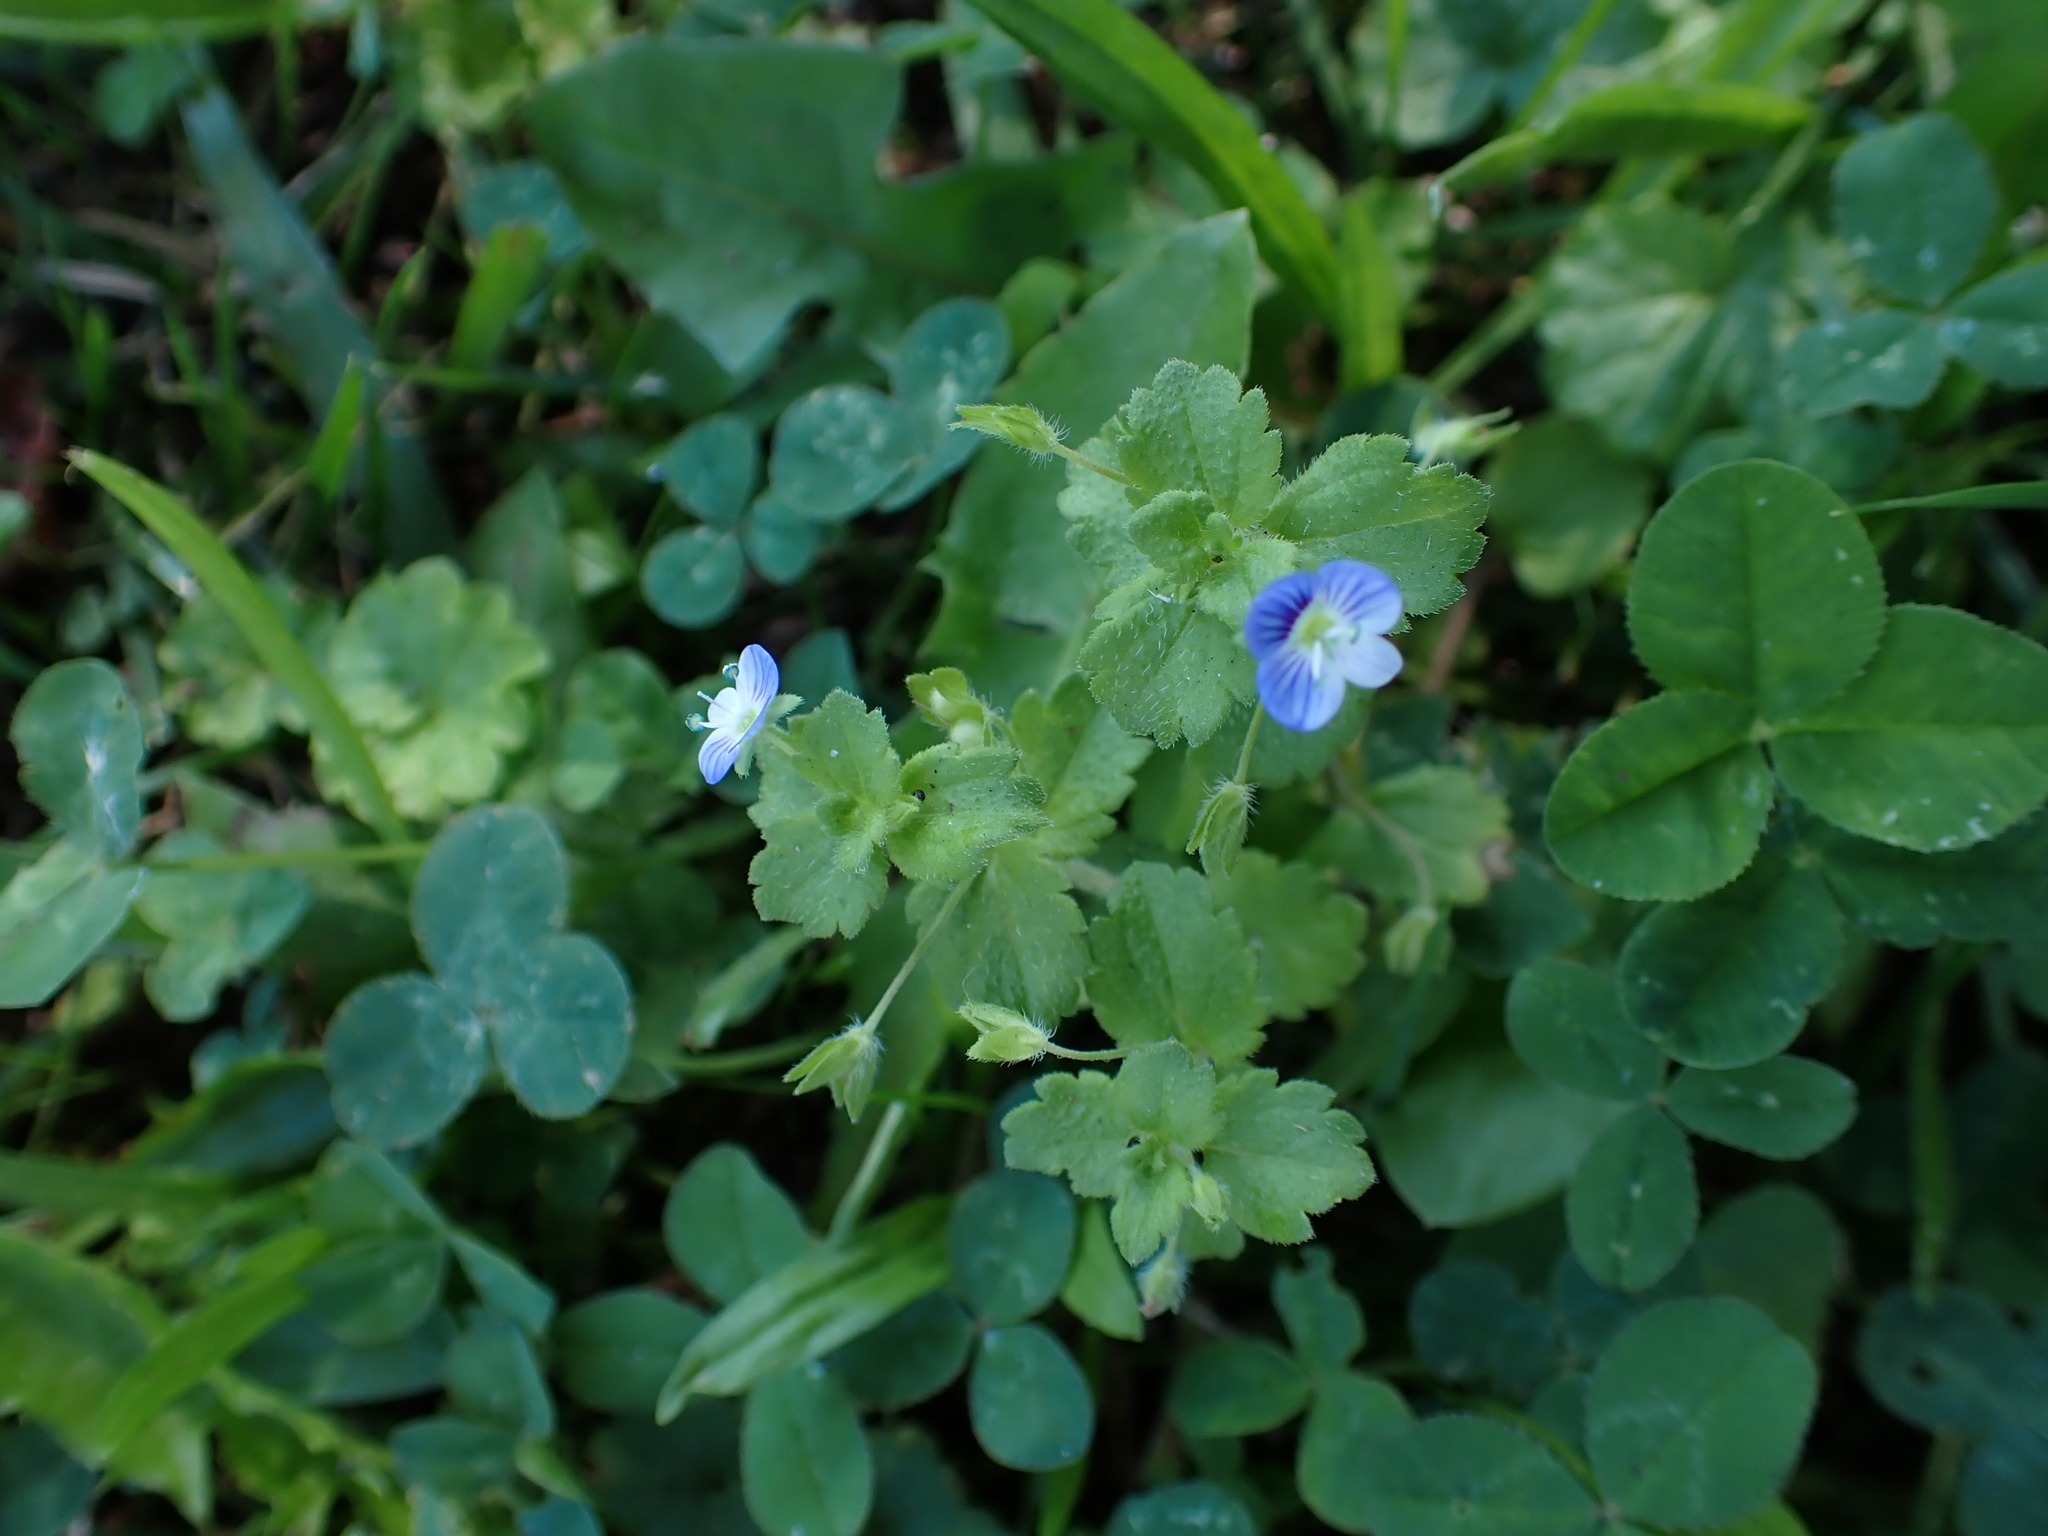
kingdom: Plantae
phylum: Tracheophyta
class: Magnoliopsida
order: Lamiales
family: Plantaginaceae
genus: Veronica
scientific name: Veronica persica
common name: Common field-speedwell
